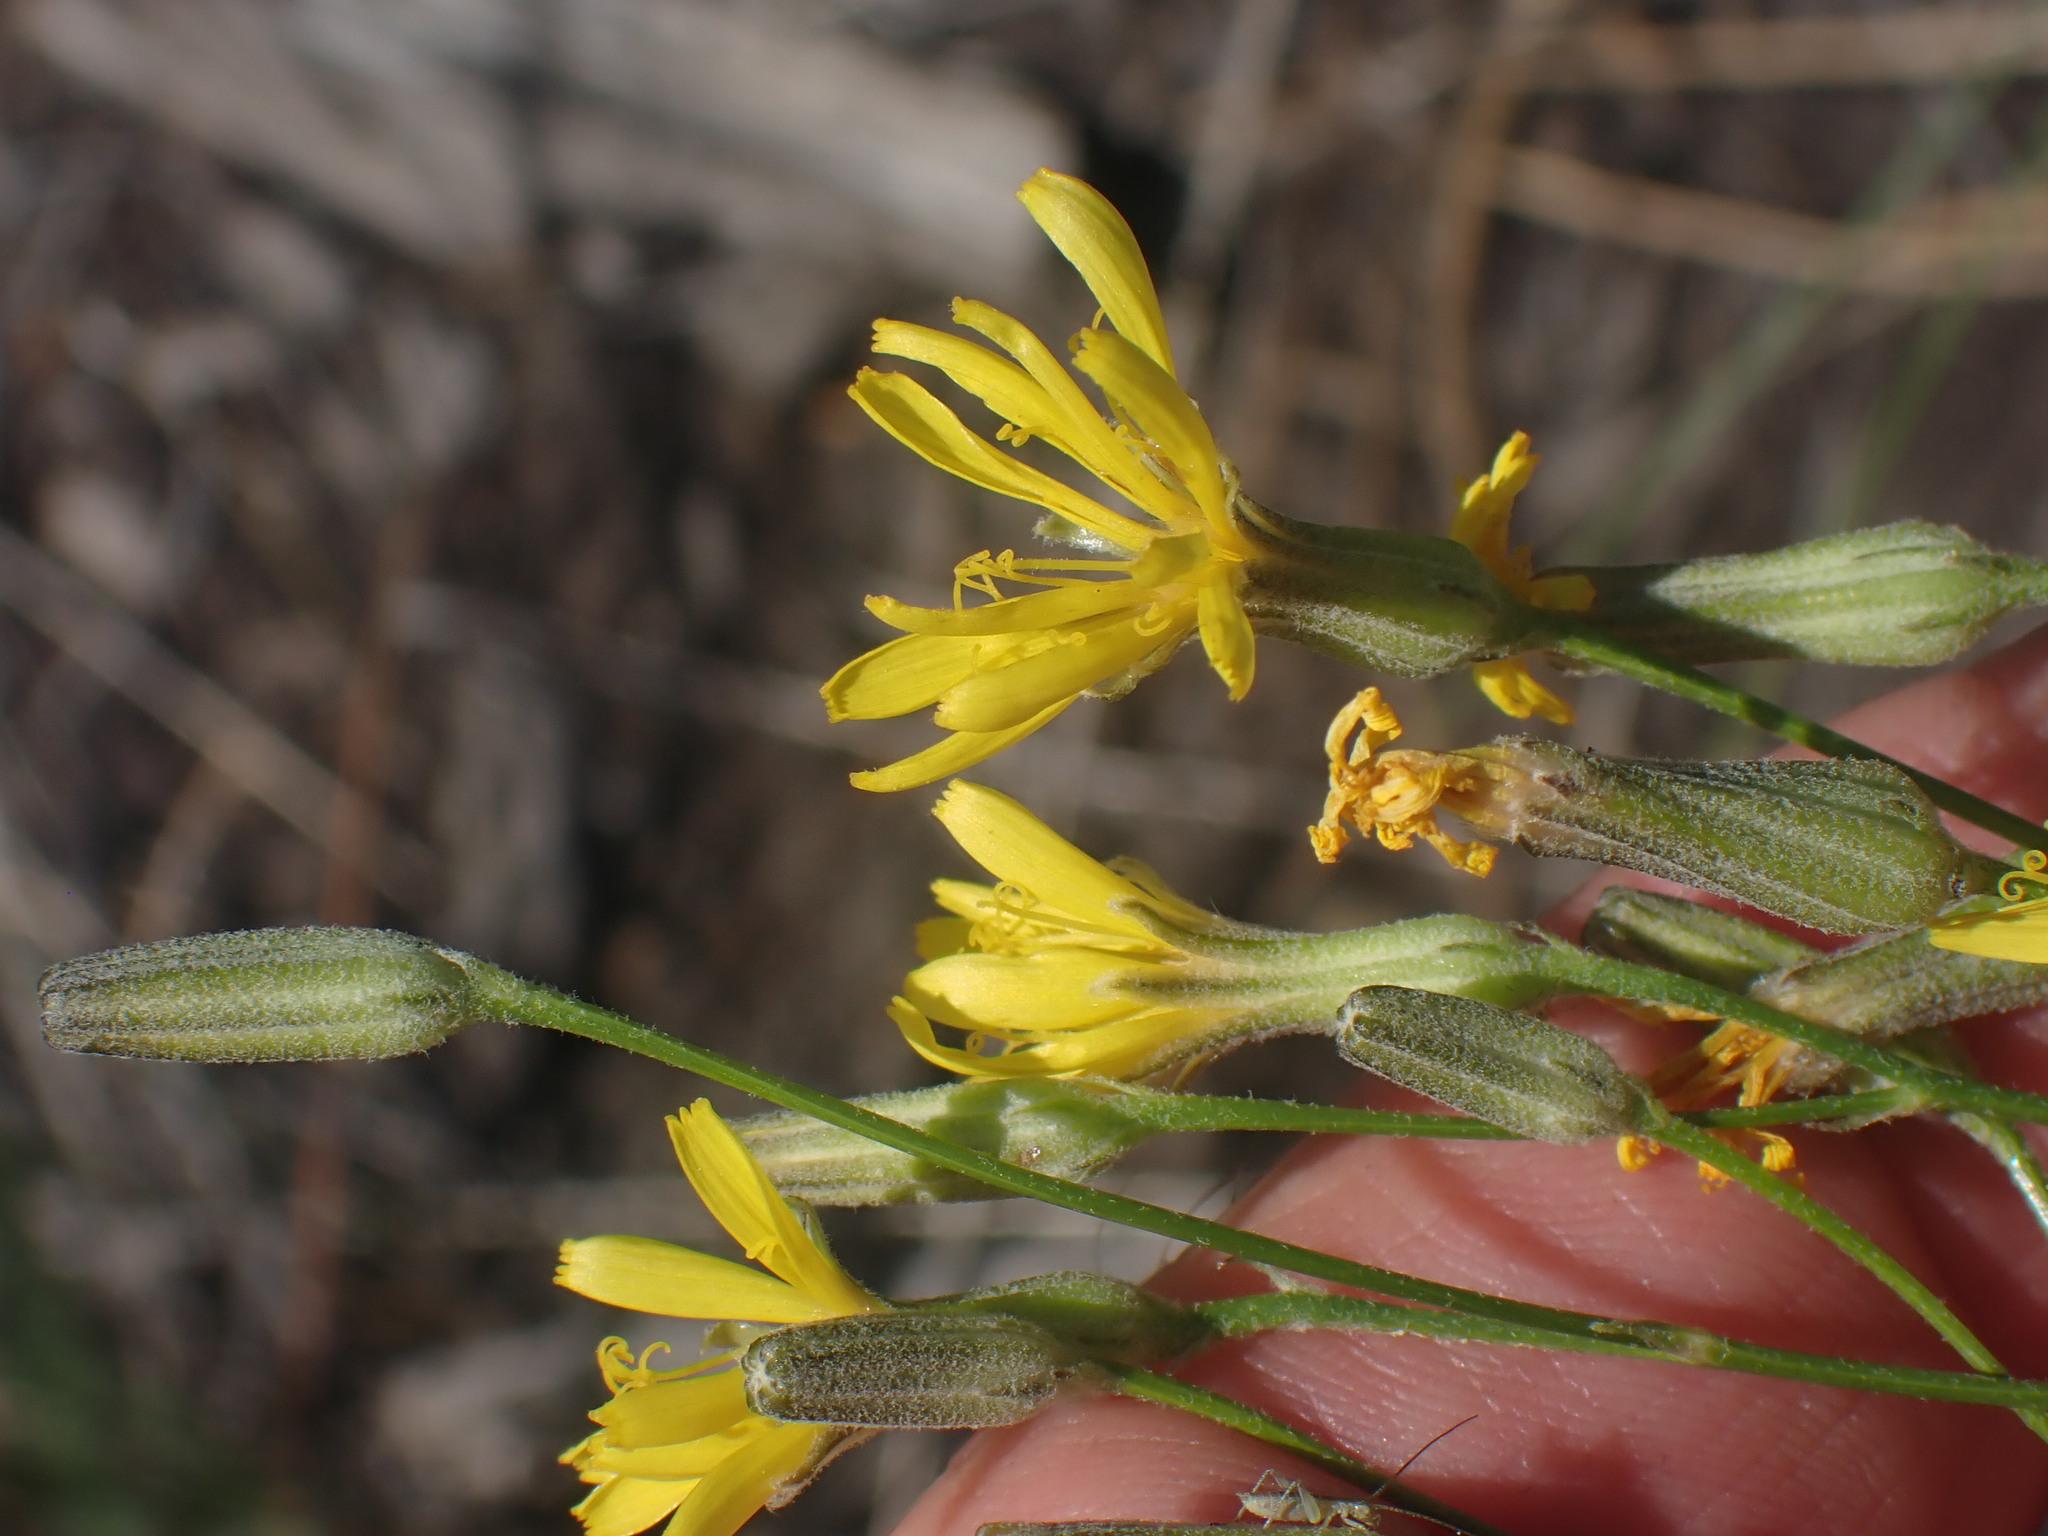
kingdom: Plantae
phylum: Tracheophyta
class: Magnoliopsida
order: Asterales
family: Asteraceae
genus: Crepis
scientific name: Crepis atribarba
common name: Dark hawk's-beard
